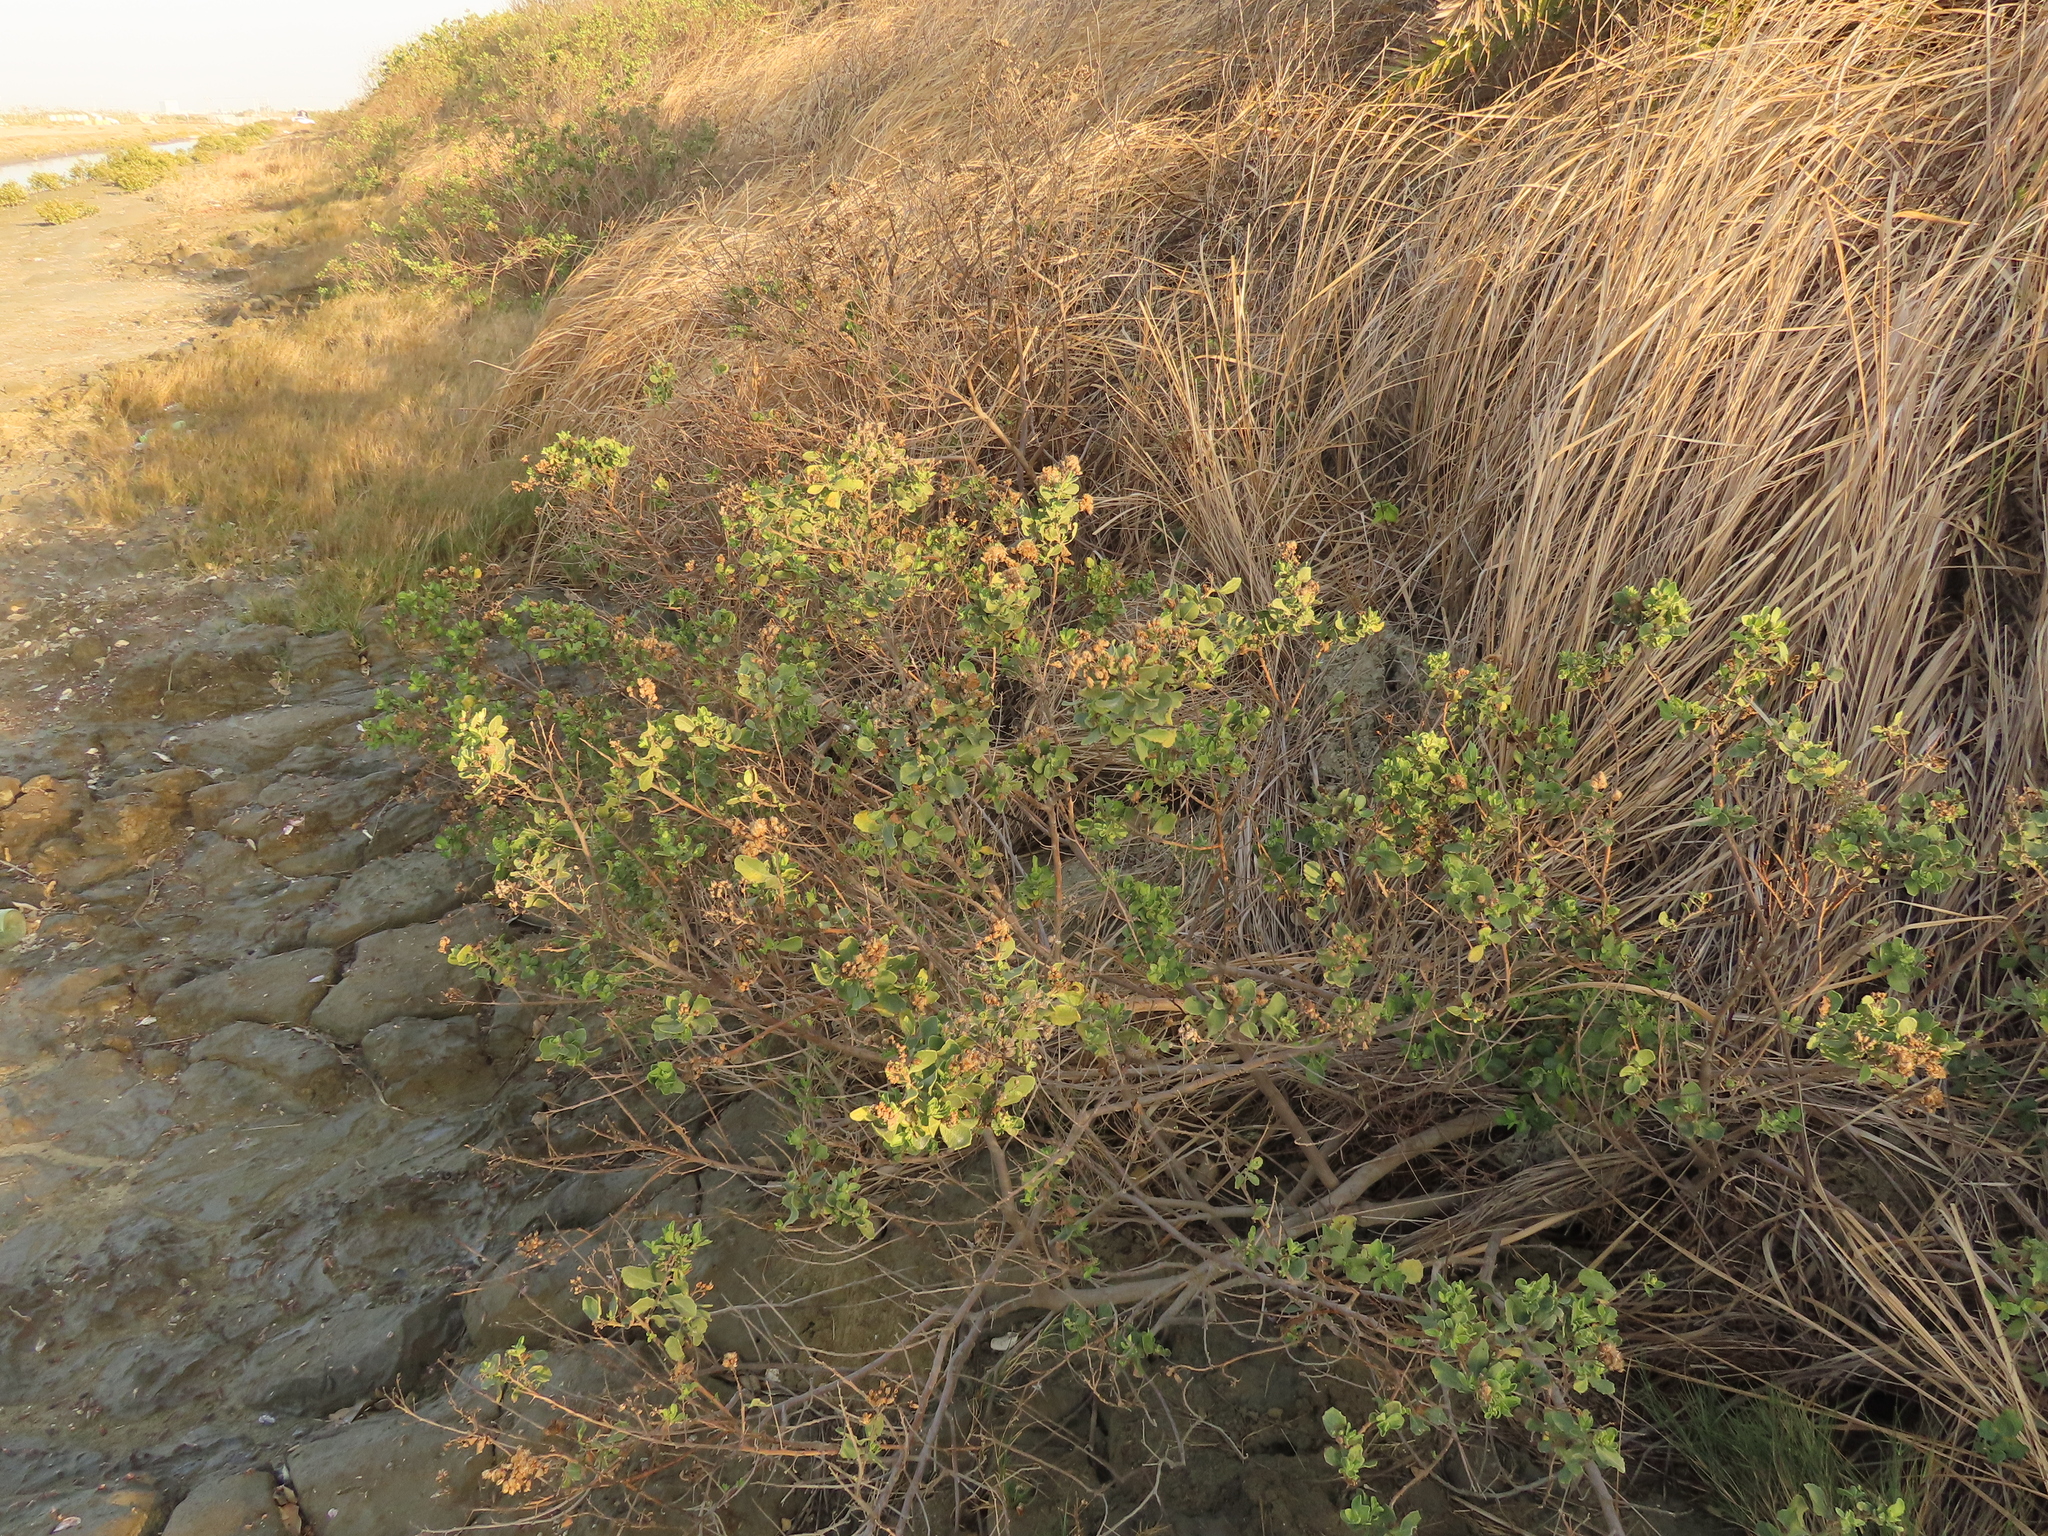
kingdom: Plantae
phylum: Tracheophyta
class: Magnoliopsida
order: Asterales
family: Asteraceae
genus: Pluchea
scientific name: Pluchea indica
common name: Indian fleabane
